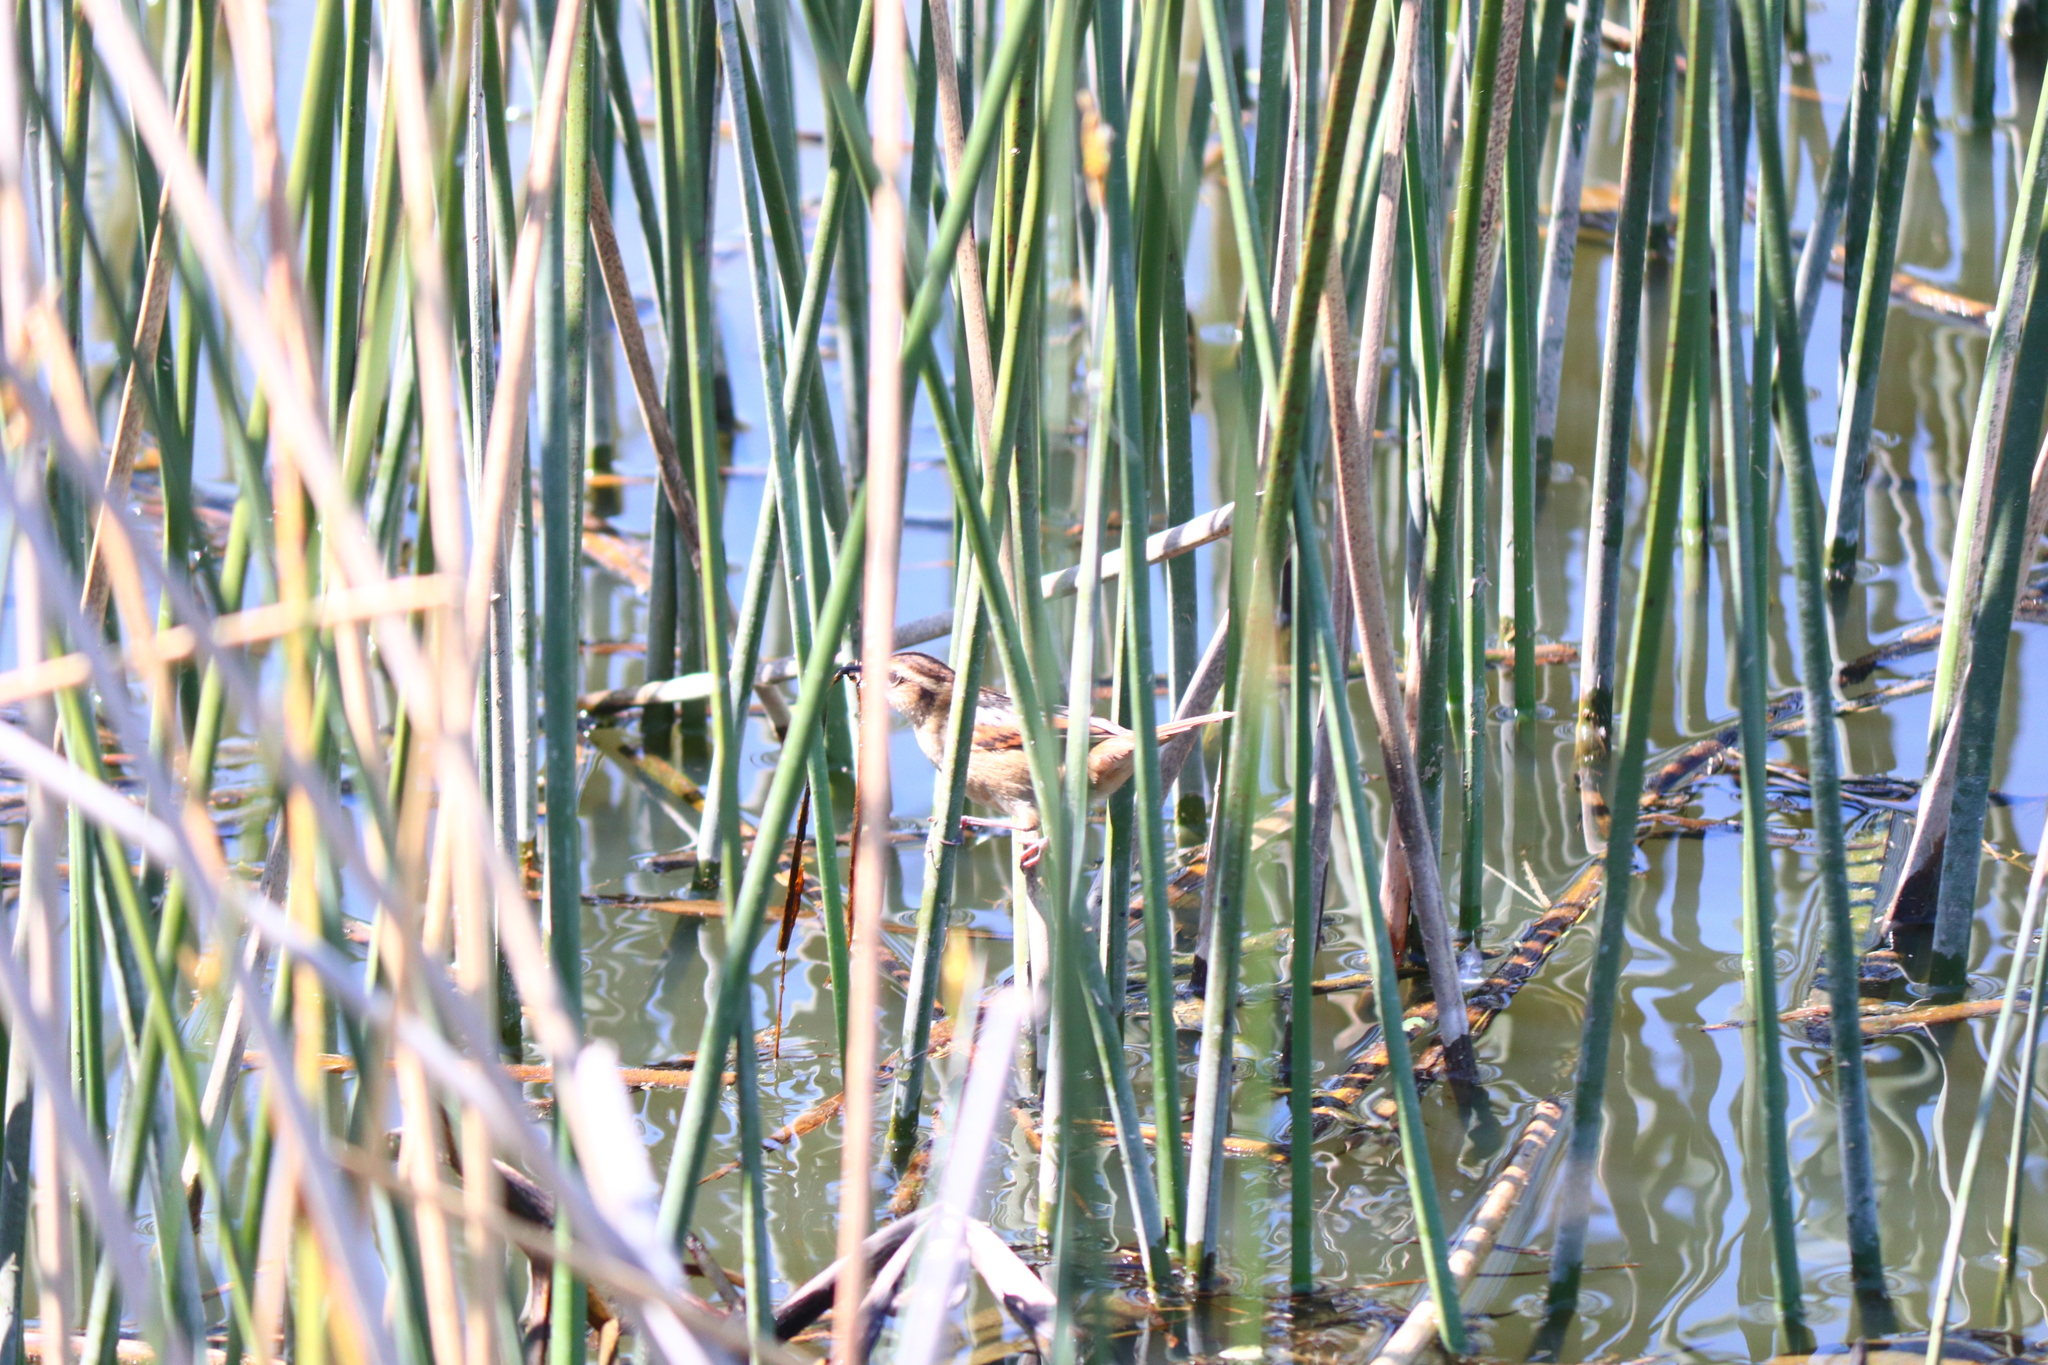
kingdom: Animalia
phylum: Chordata
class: Aves
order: Passeriformes
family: Furnariidae
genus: Phleocryptes
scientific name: Phleocryptes melanops
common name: Wren-like rushbird
